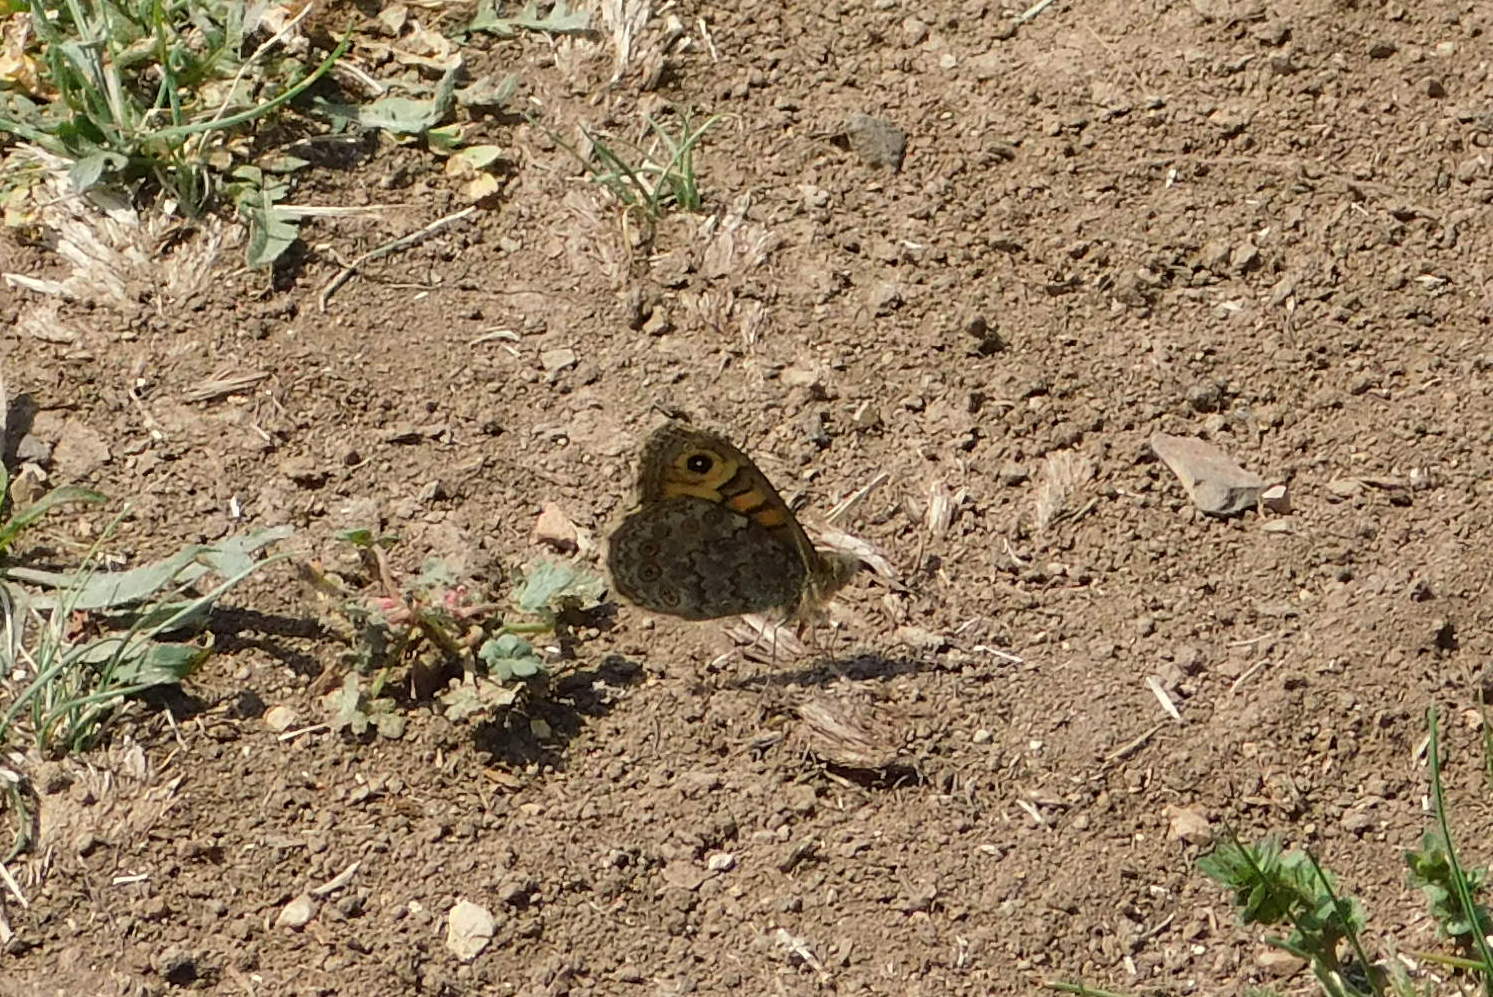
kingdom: Animalia
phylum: Arthropoda
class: Insecta
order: Lepidoptera
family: Nymphalidae
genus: Pararge
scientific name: Pararge Lasiommata megera
